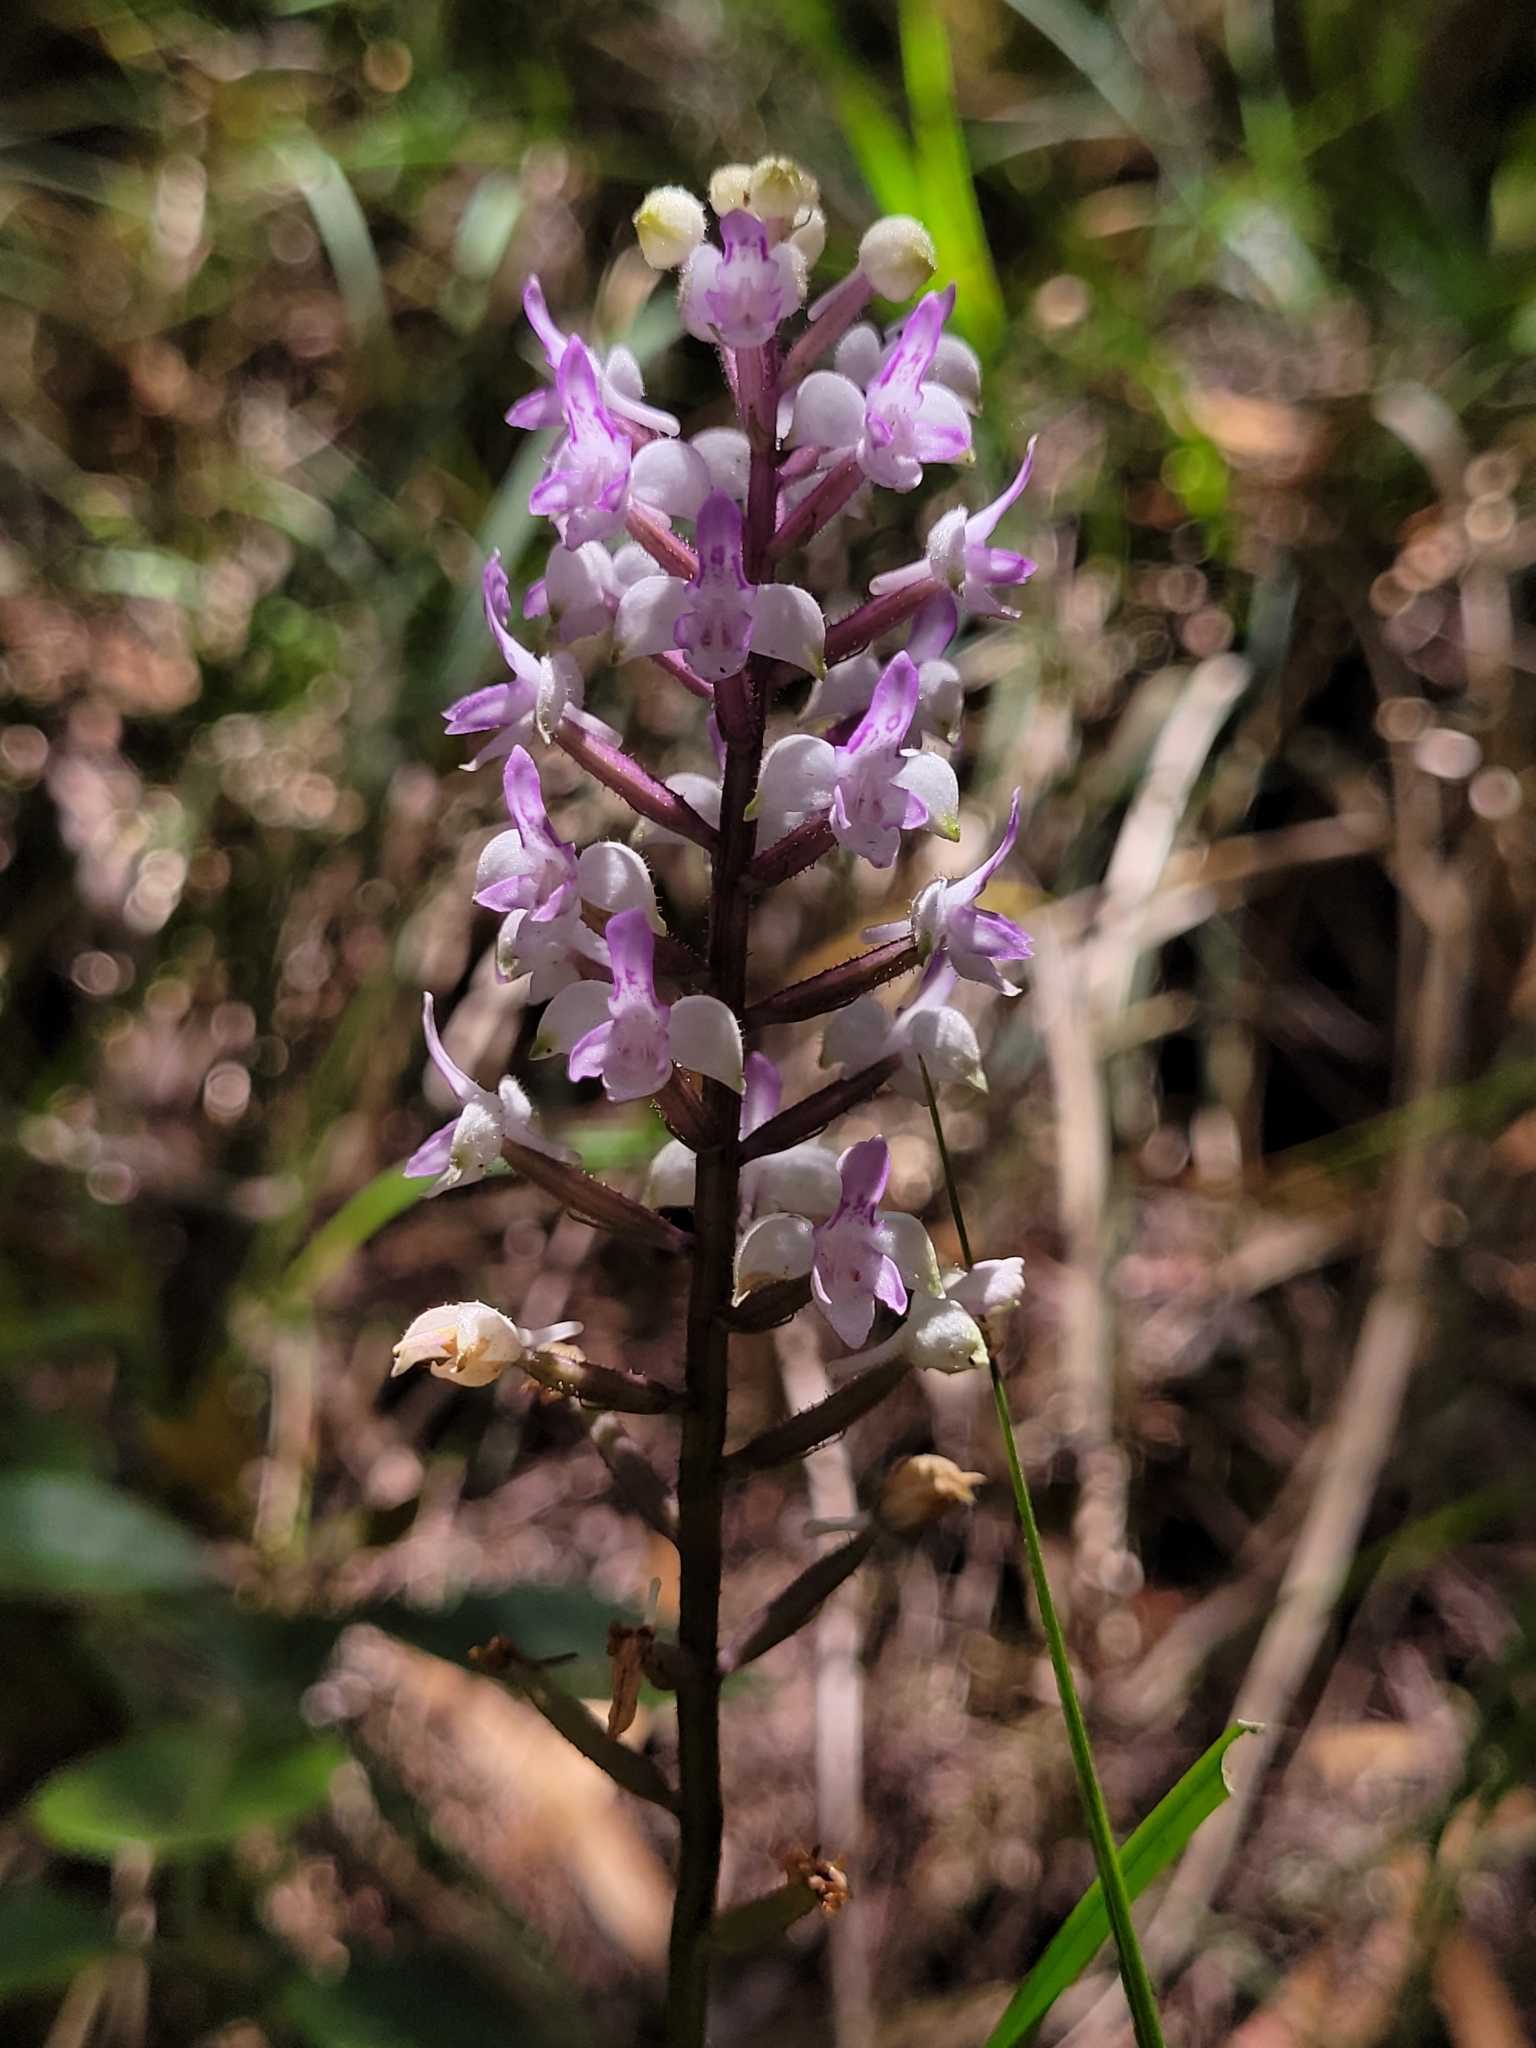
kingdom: Plantae
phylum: Tracheophyta
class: Liliopsida
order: Asparagales
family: Orchidaceae
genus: Cynorkis
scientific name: Cynorkis ridleyi
